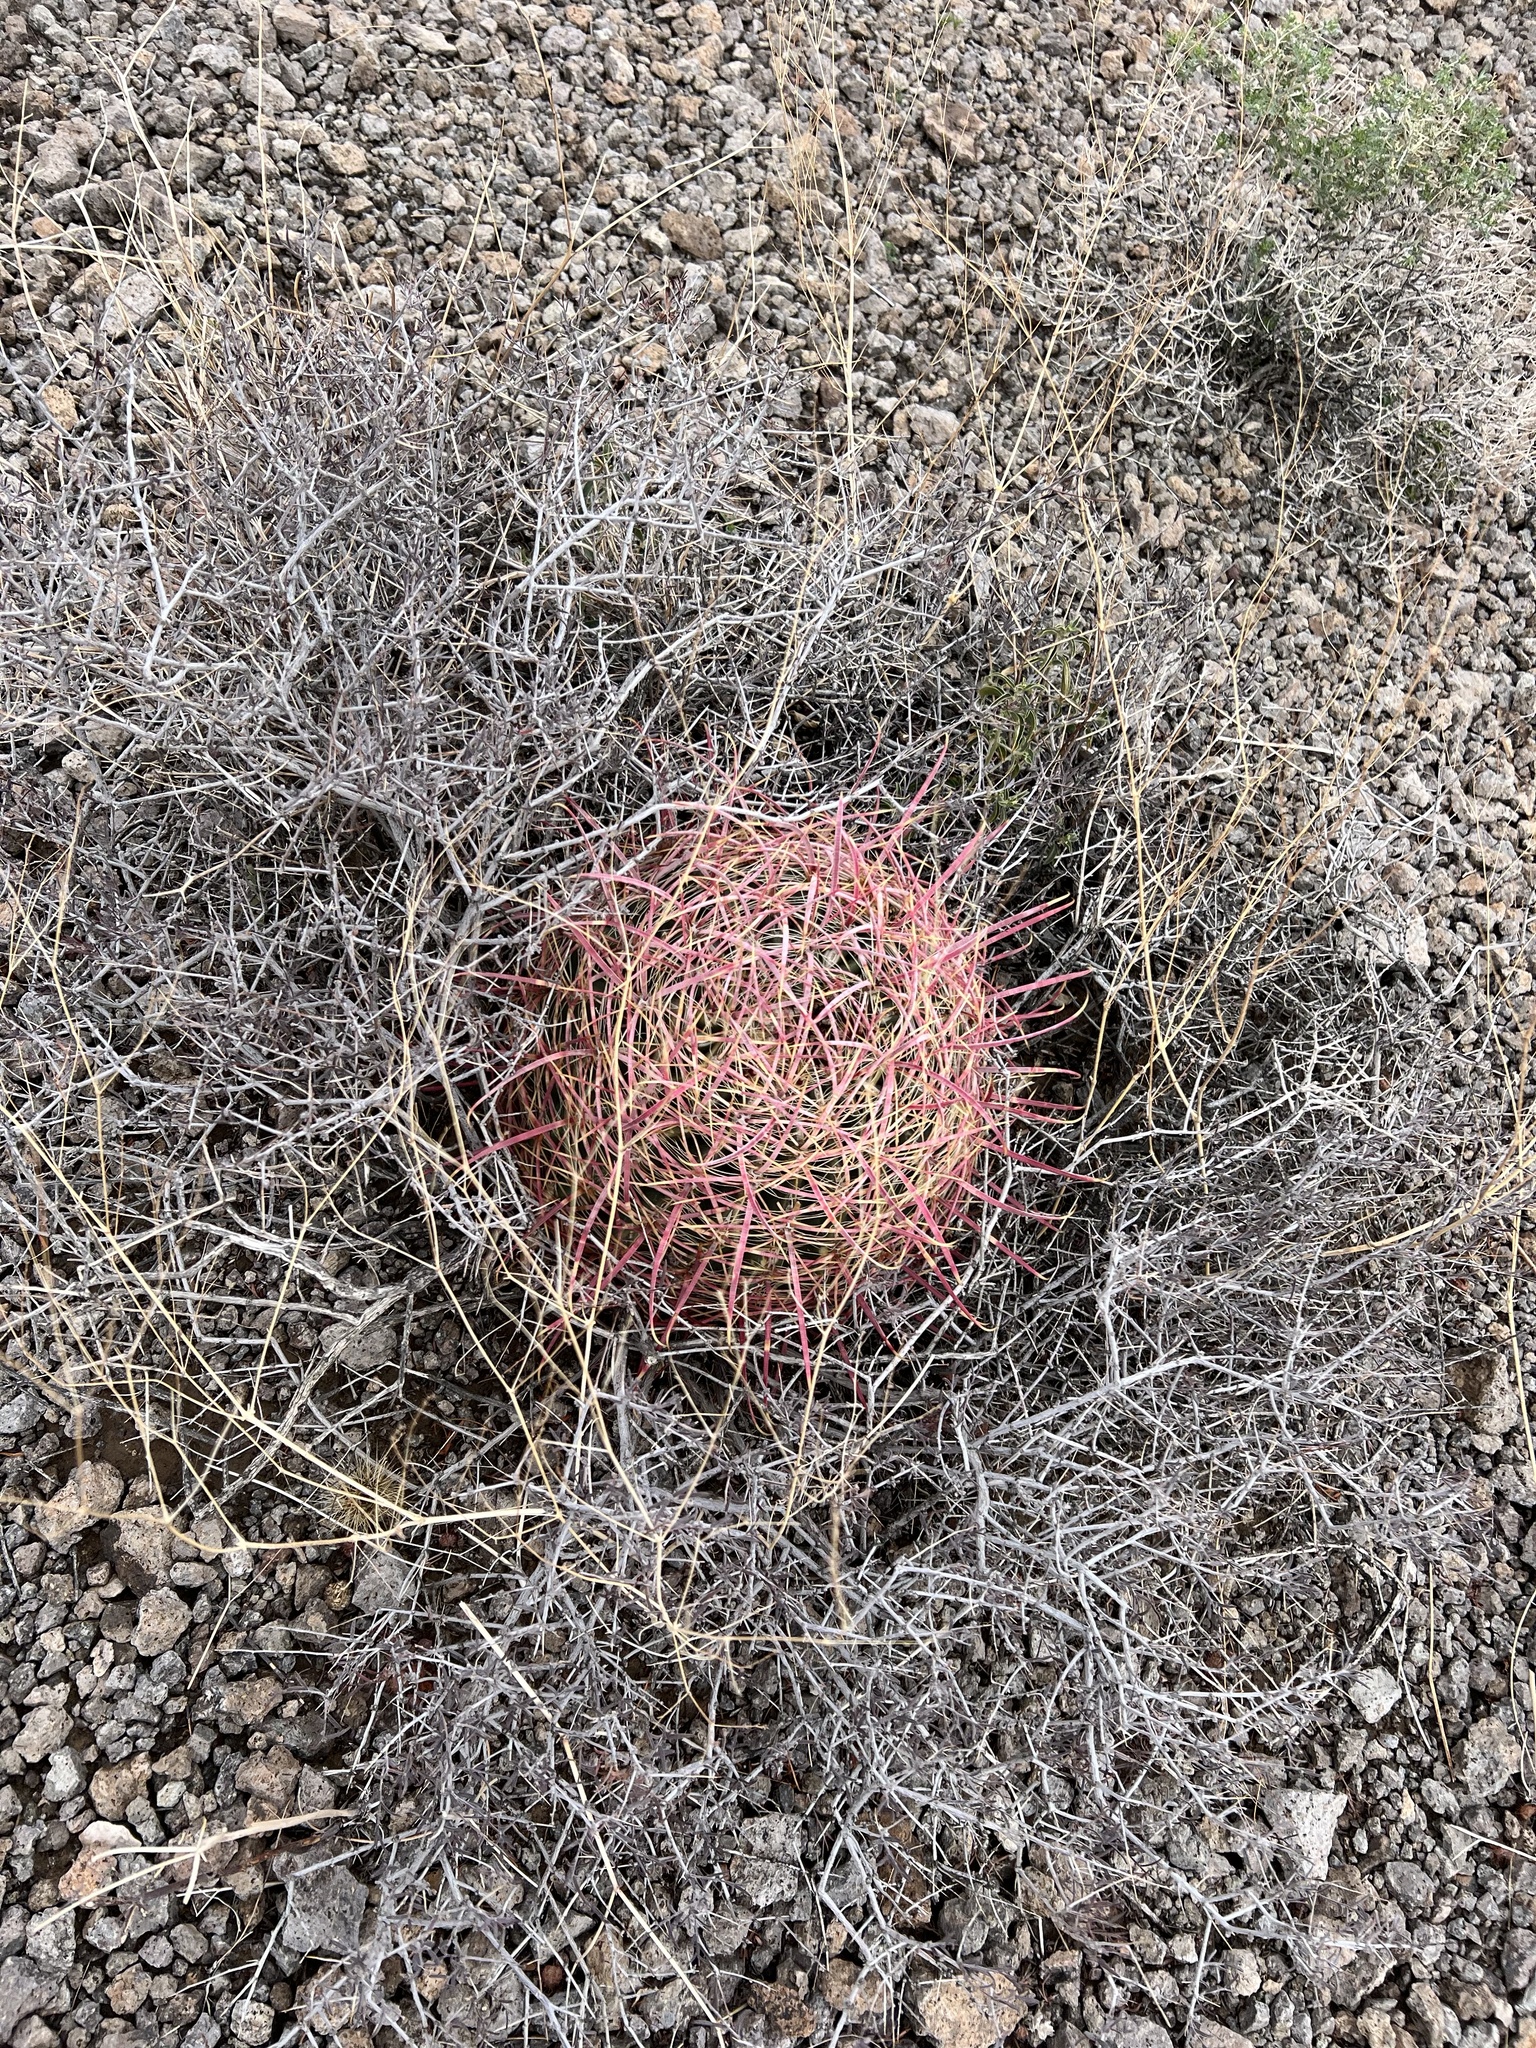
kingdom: Plantae
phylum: Tracheophyta
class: Magnoliopsida
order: Caryophyllales
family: Cactaceae
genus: Ferocactus
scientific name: Ferocactus cylindraceus
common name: California barrel cactus
